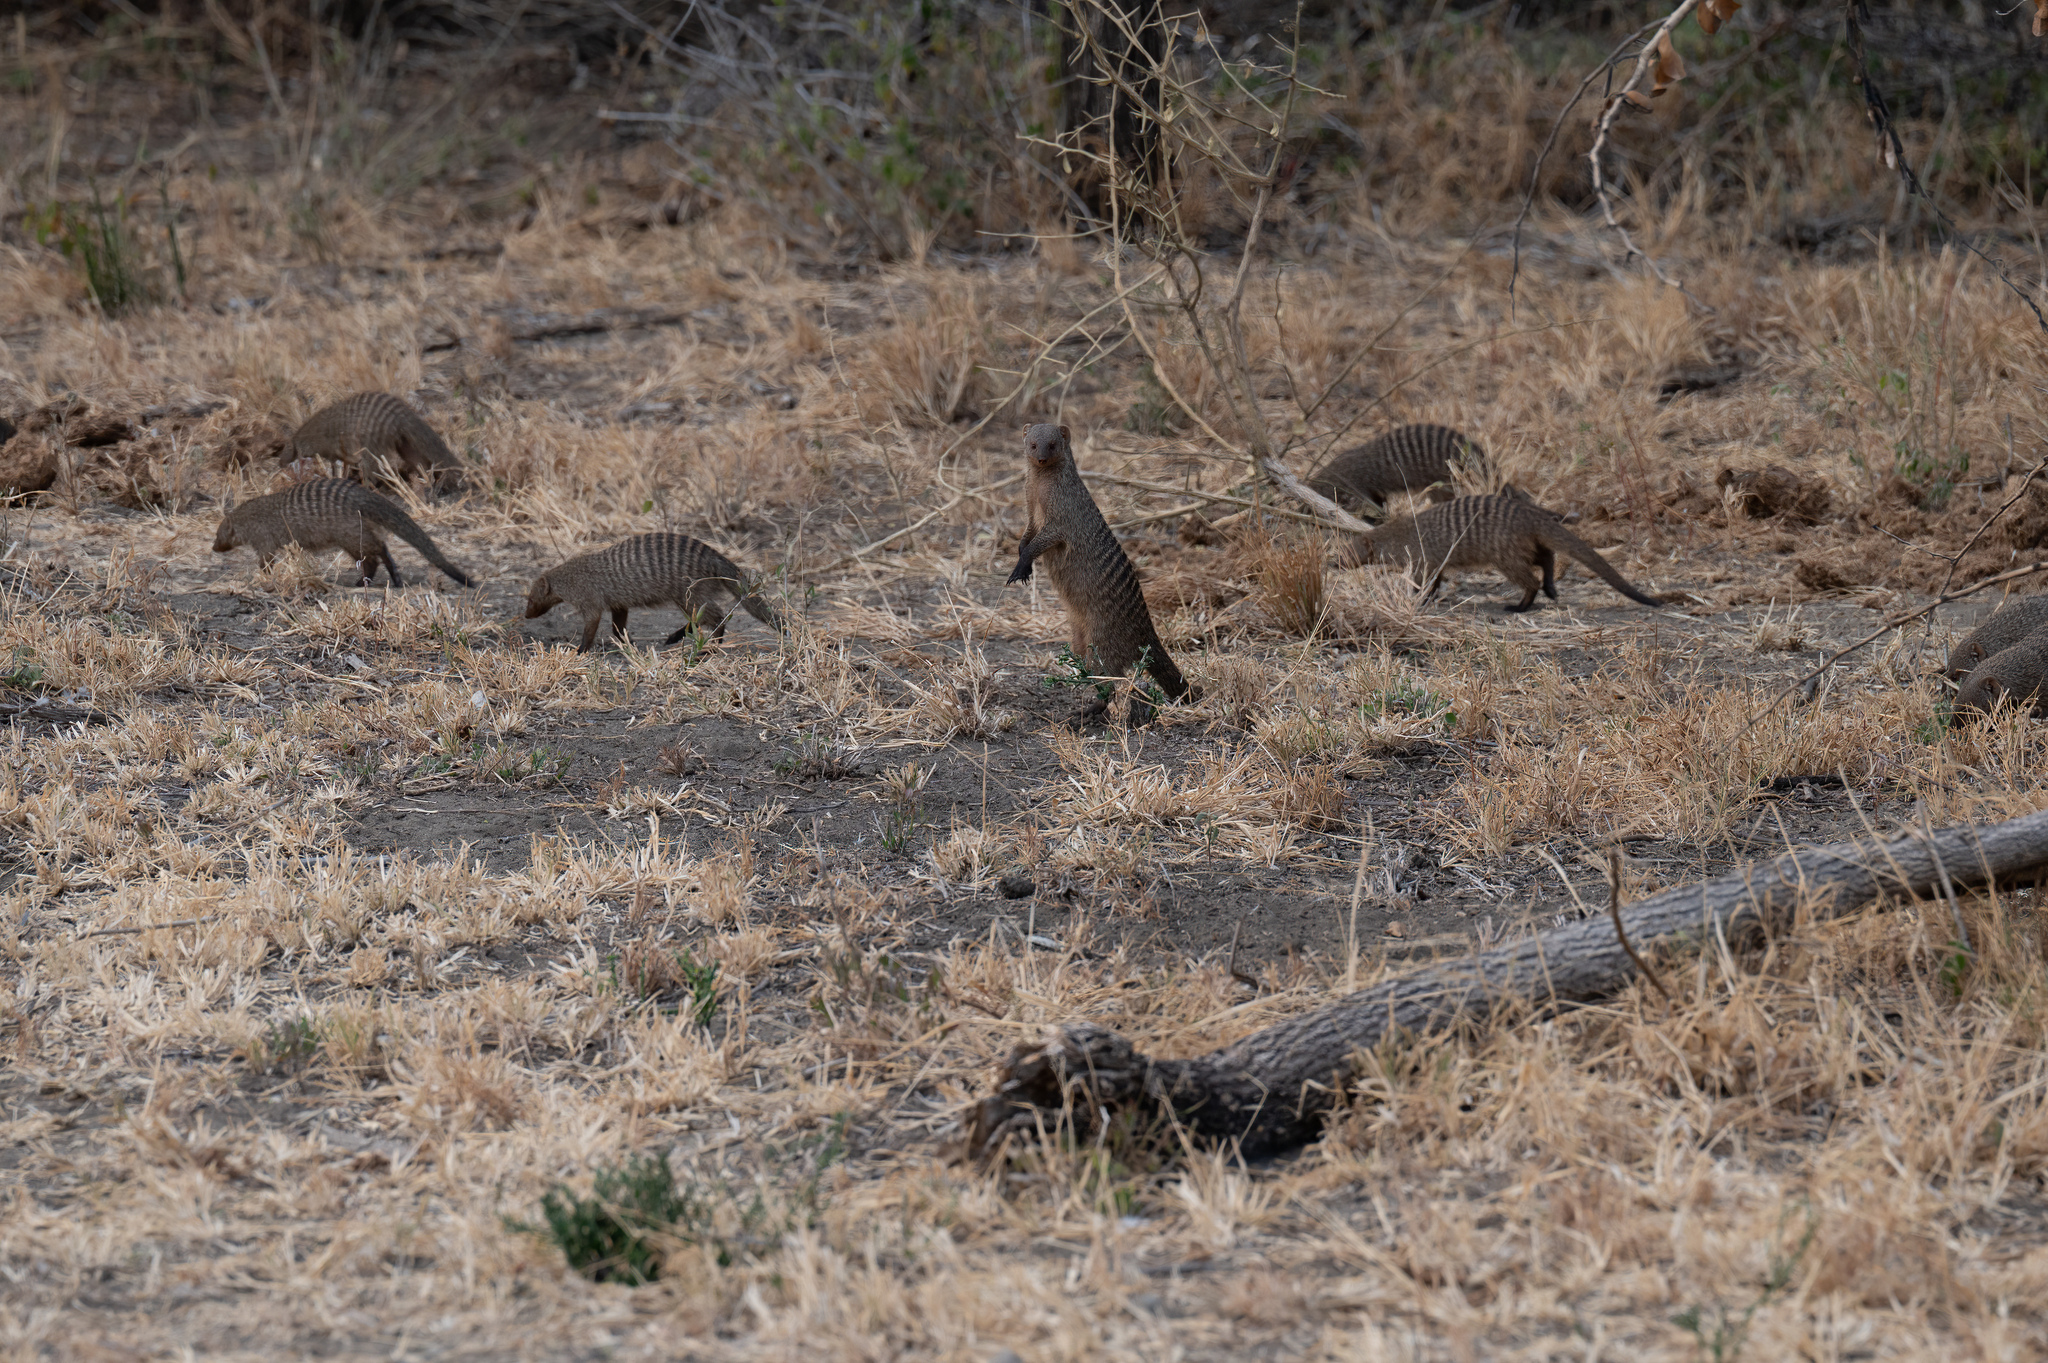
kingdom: Animalia
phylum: Chordata
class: Mammalia
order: Carnivora
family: Herpestidae
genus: Mungos
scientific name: Mungos mungo
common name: Banded mongoose
